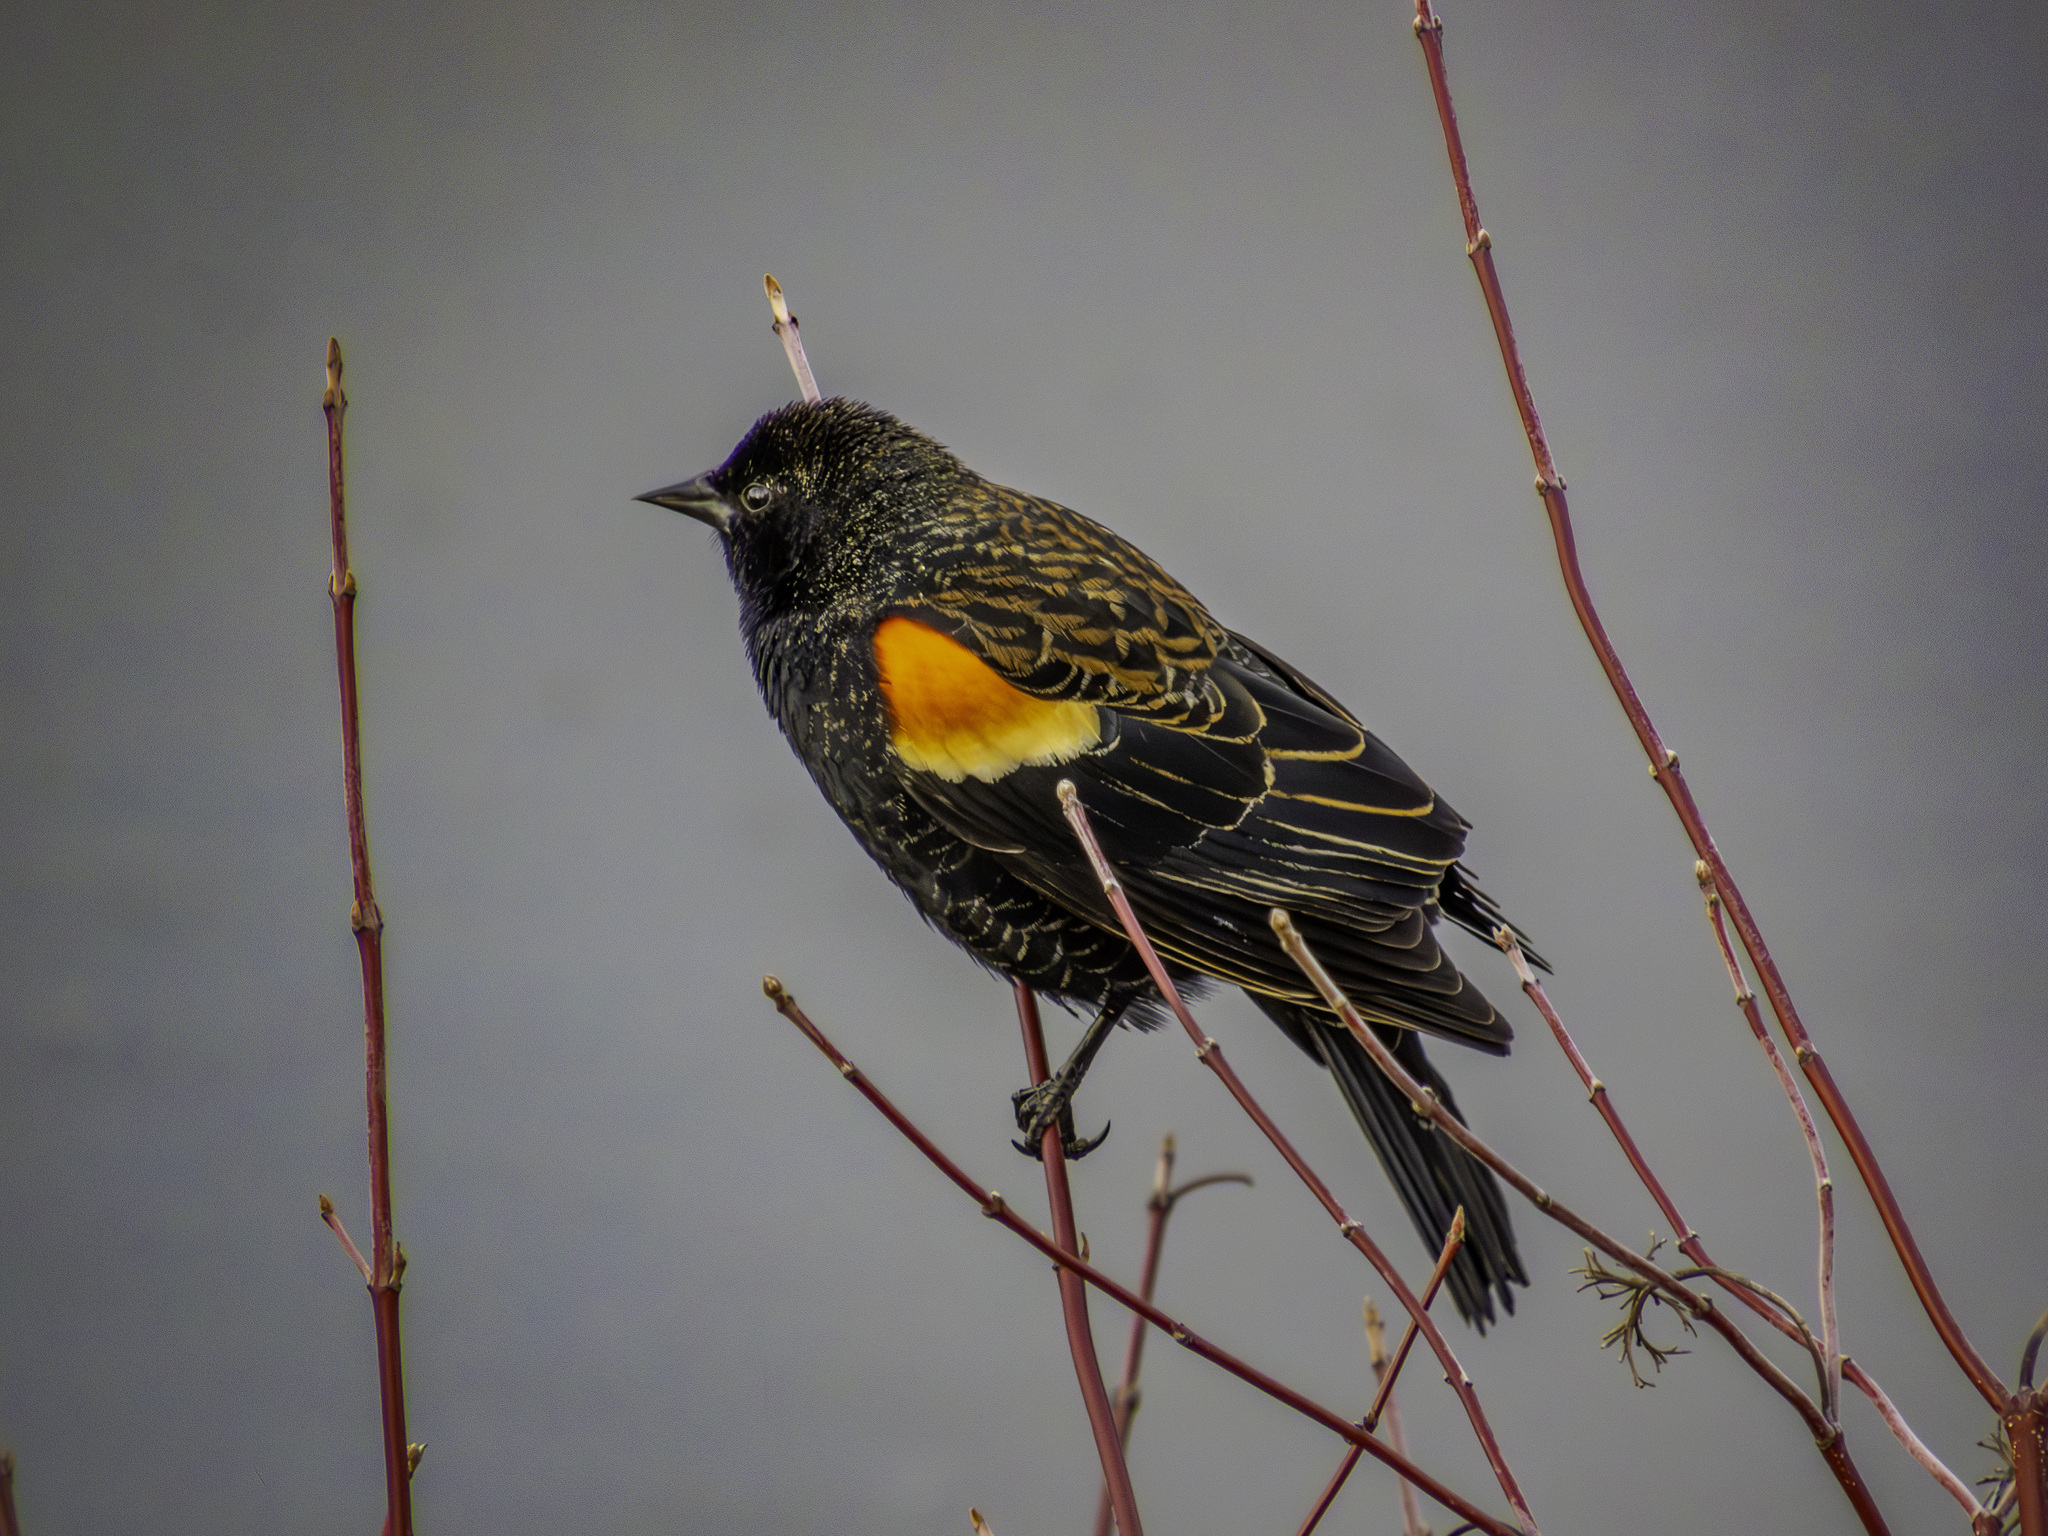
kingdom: Animalia
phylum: Chordata
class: Aves
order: Passeriformes
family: Icteridae
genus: Agelaius
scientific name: Agelaius phoeniceus
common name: Red-winged blackbird
